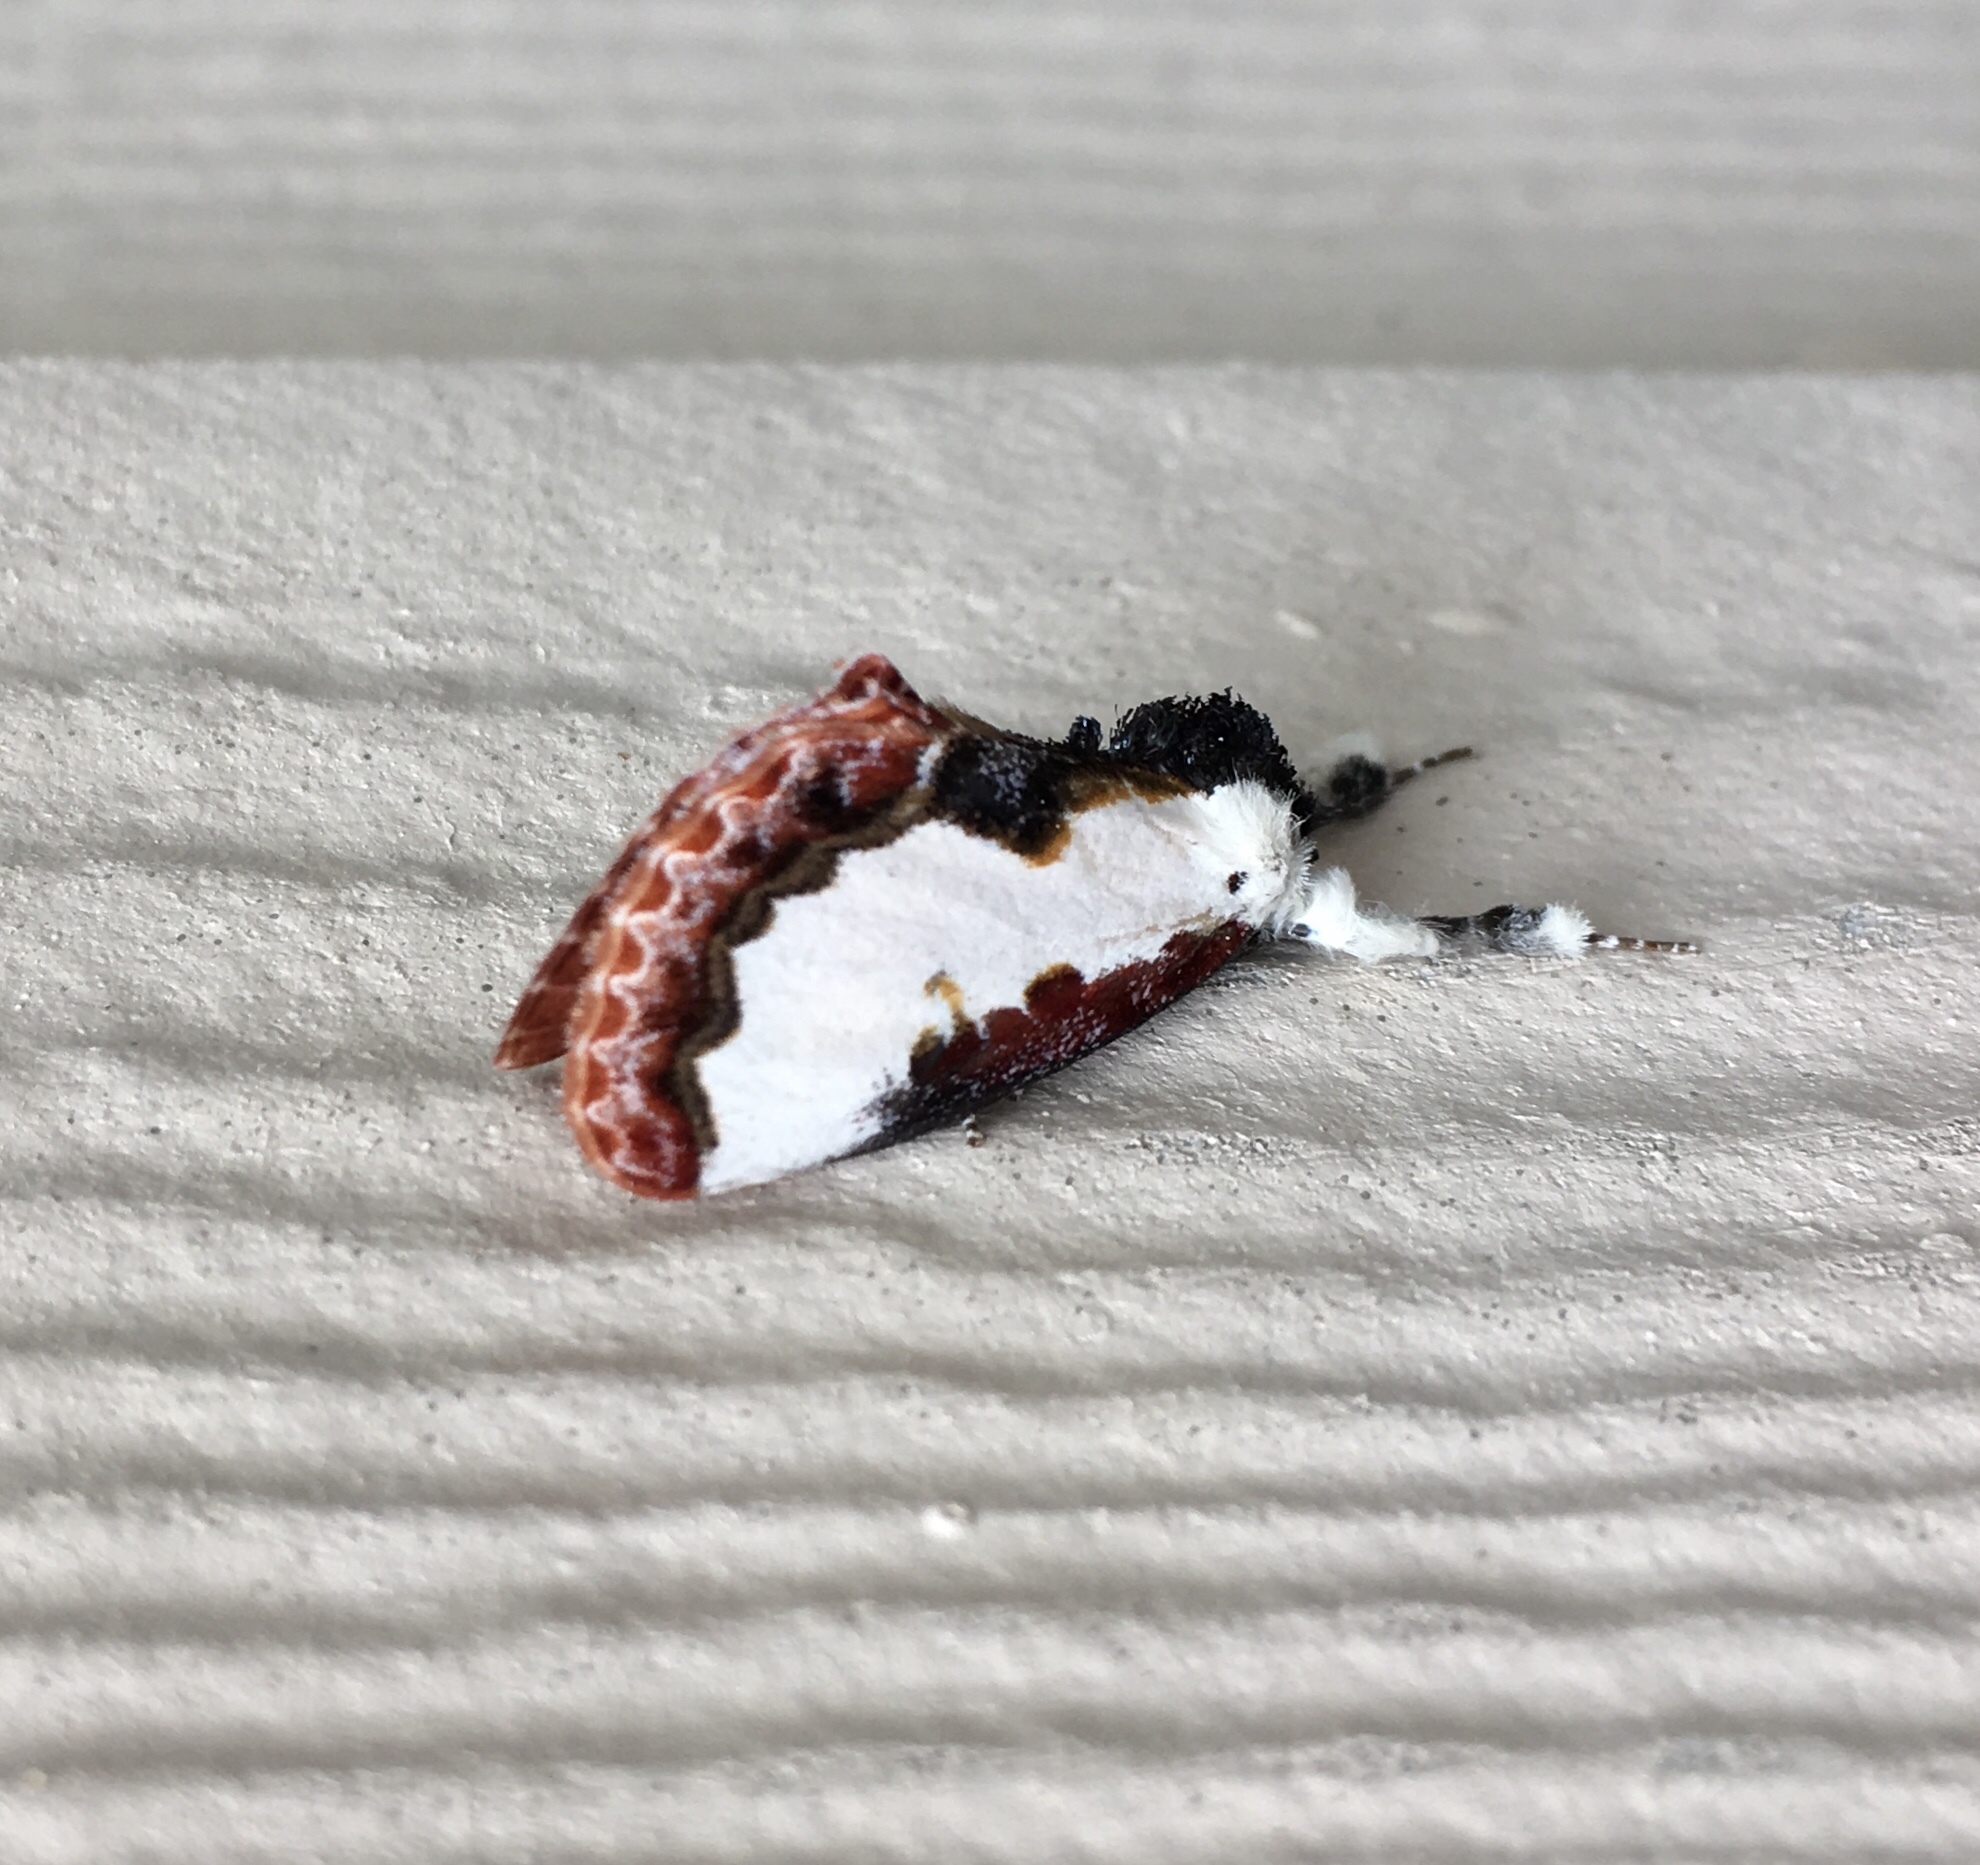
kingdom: Animalia
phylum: Arthropoda
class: Insecta
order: Lepidoptera
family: Noctuidae
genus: Eudryas
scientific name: Eudryas unio
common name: Pearly wood-nymph
